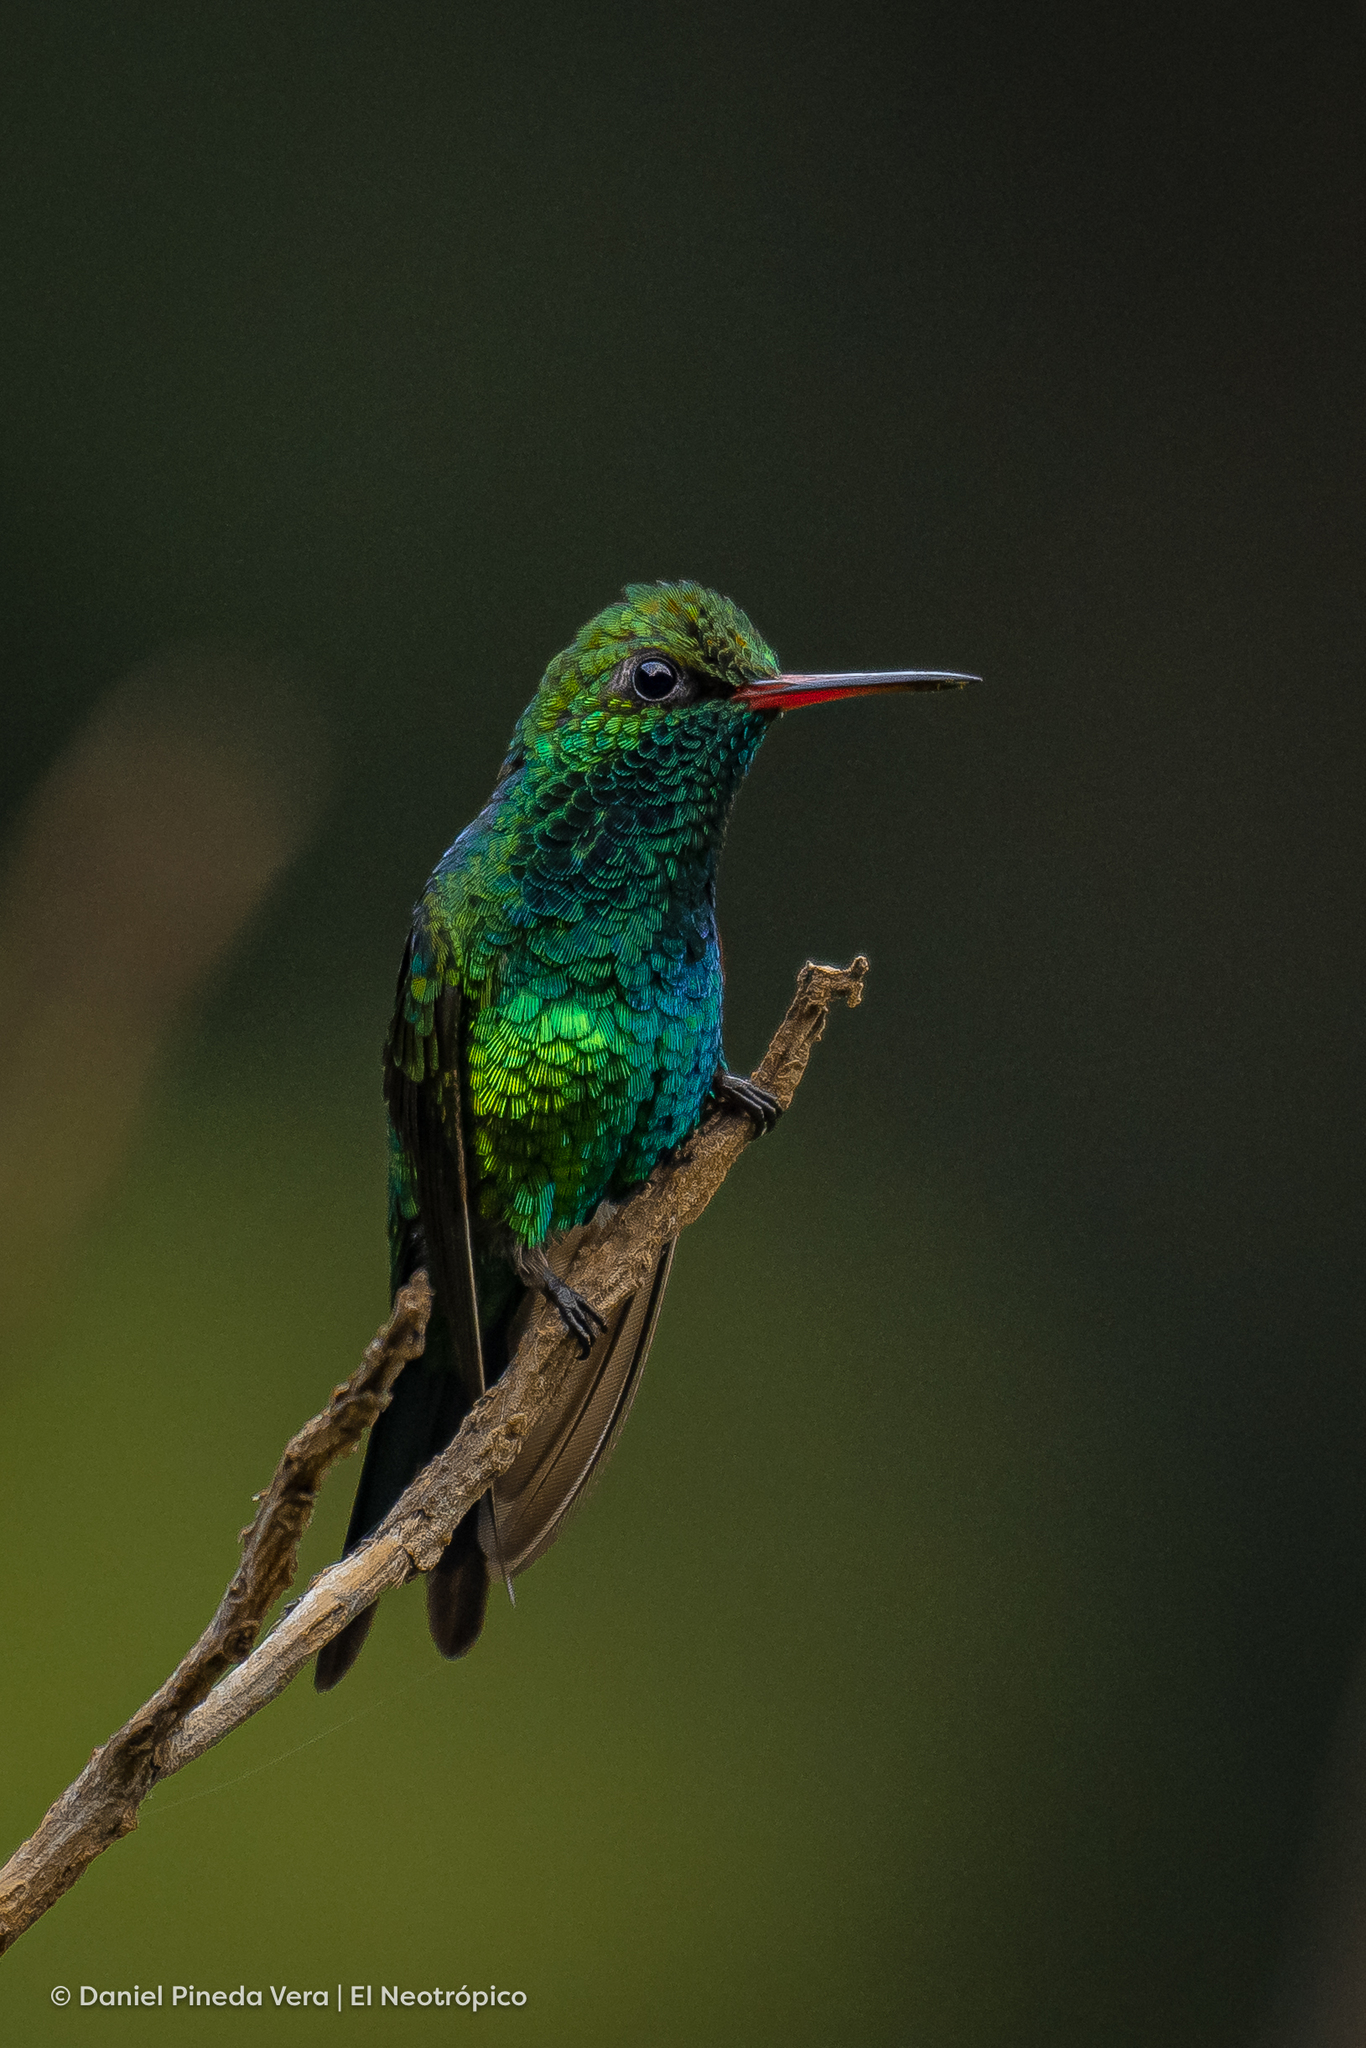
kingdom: Animalia
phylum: Chordata
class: Aves
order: Apodiformes
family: Trochilidae
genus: Cynanthus
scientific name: Cynanthus canivetii
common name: Canivet's emerald
